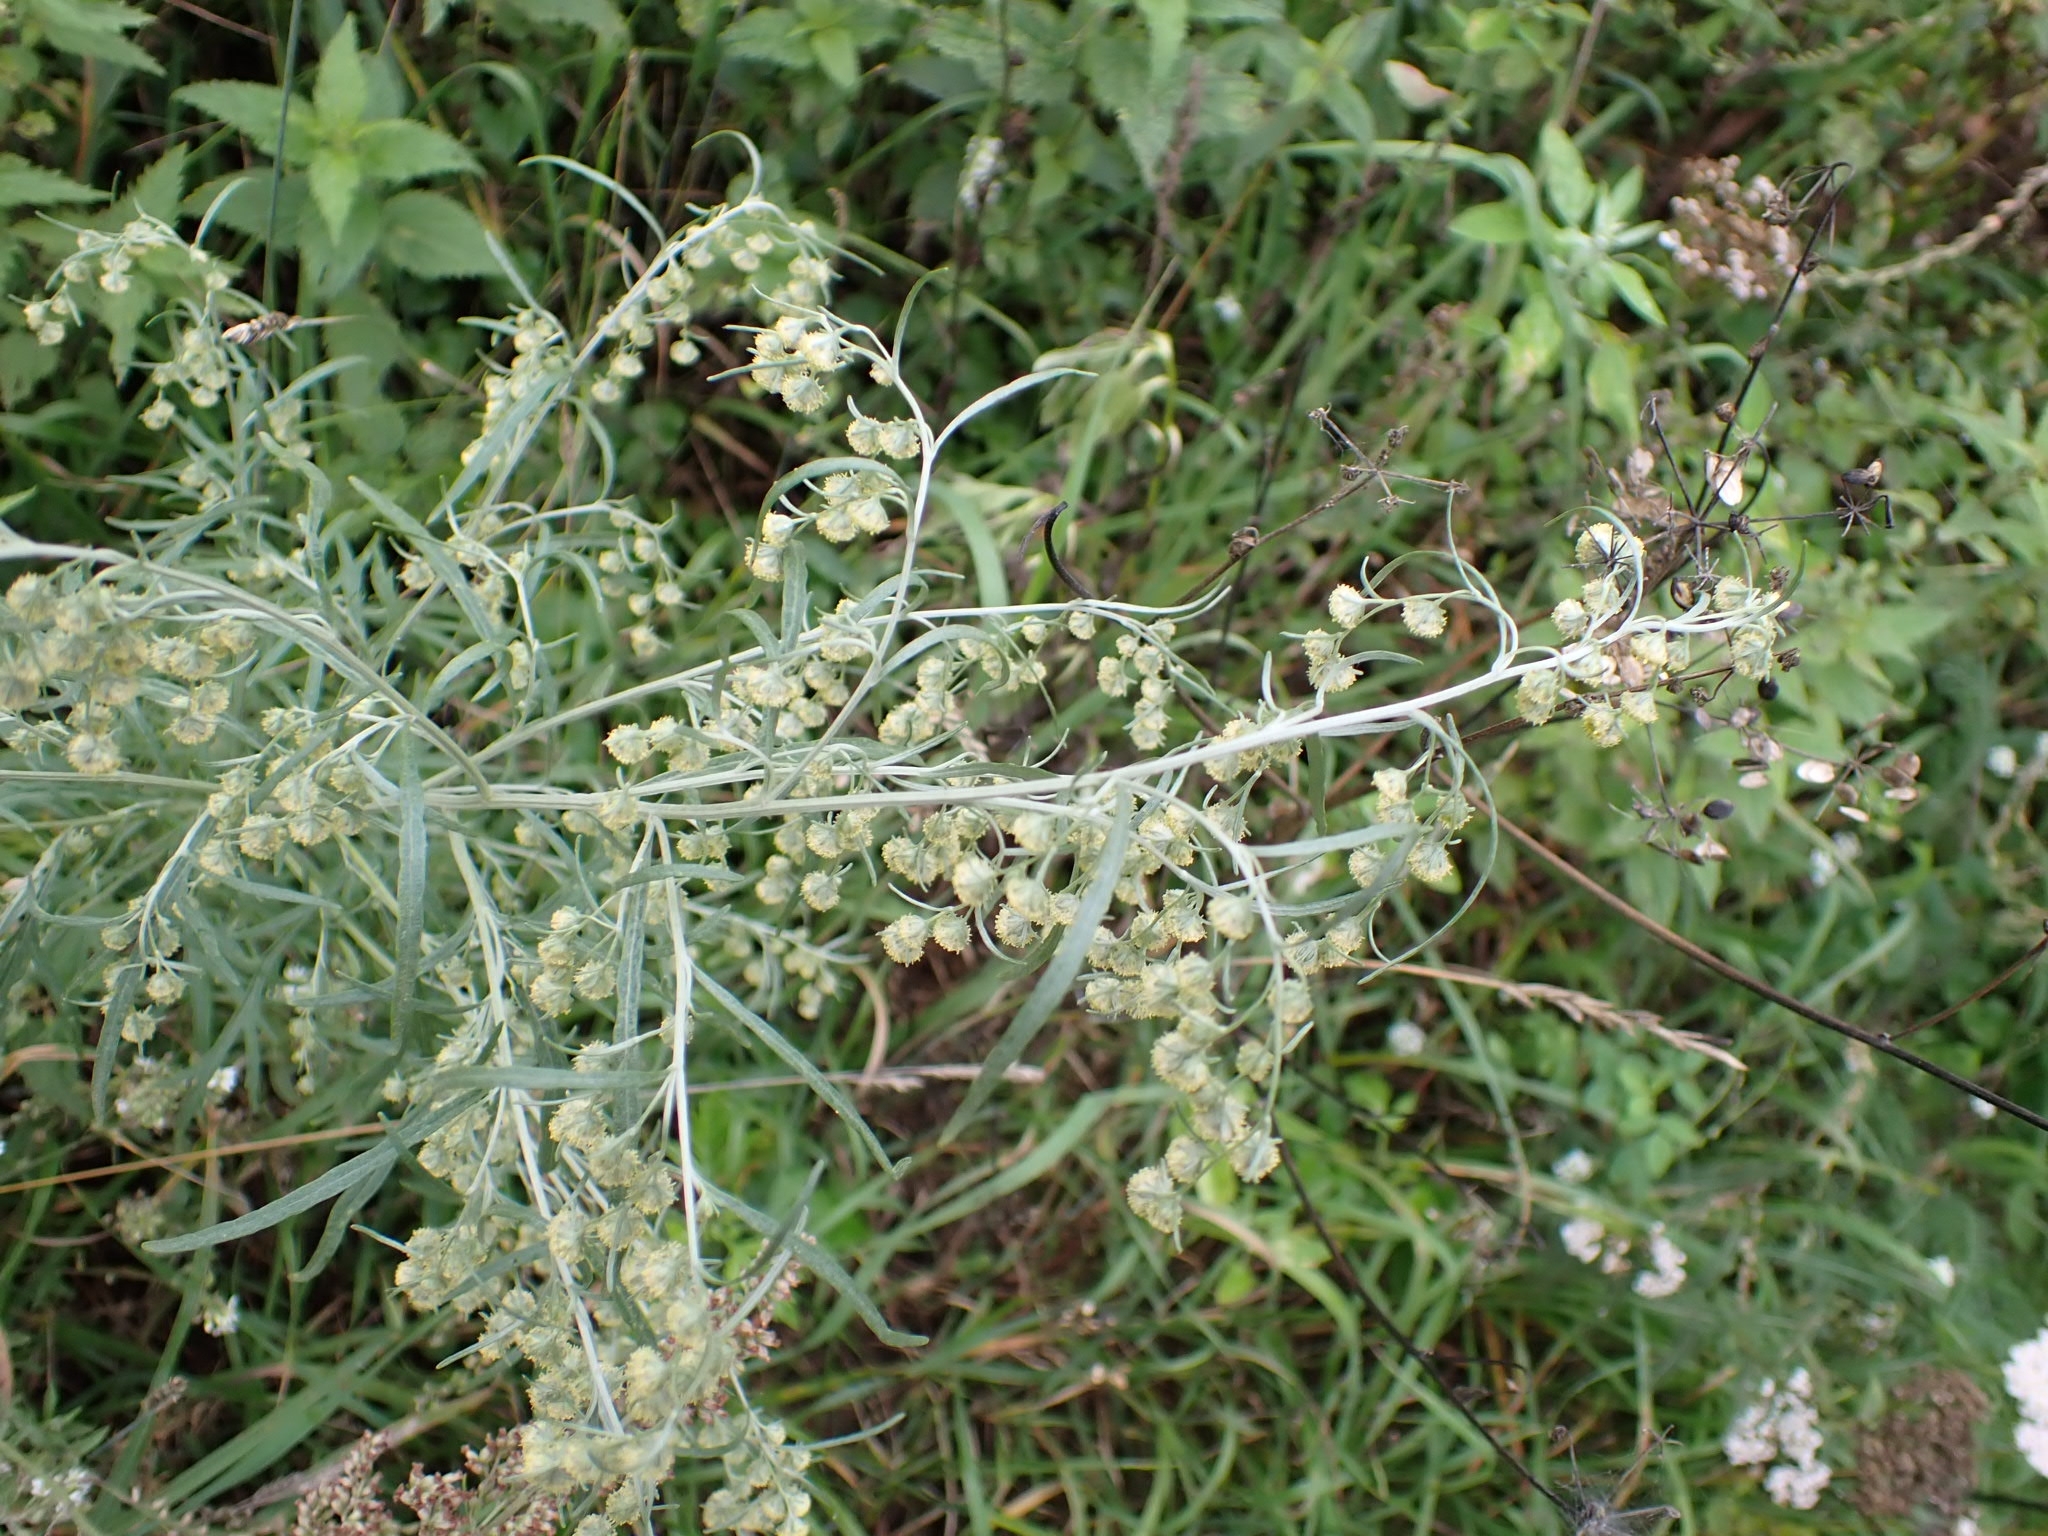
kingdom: Plantae
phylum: Tracheophyta
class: Magnoliopsida
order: Asterales
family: Asteraceae
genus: Artemisia
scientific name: Artemisia sieversiana
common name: Sieversian wormwood
